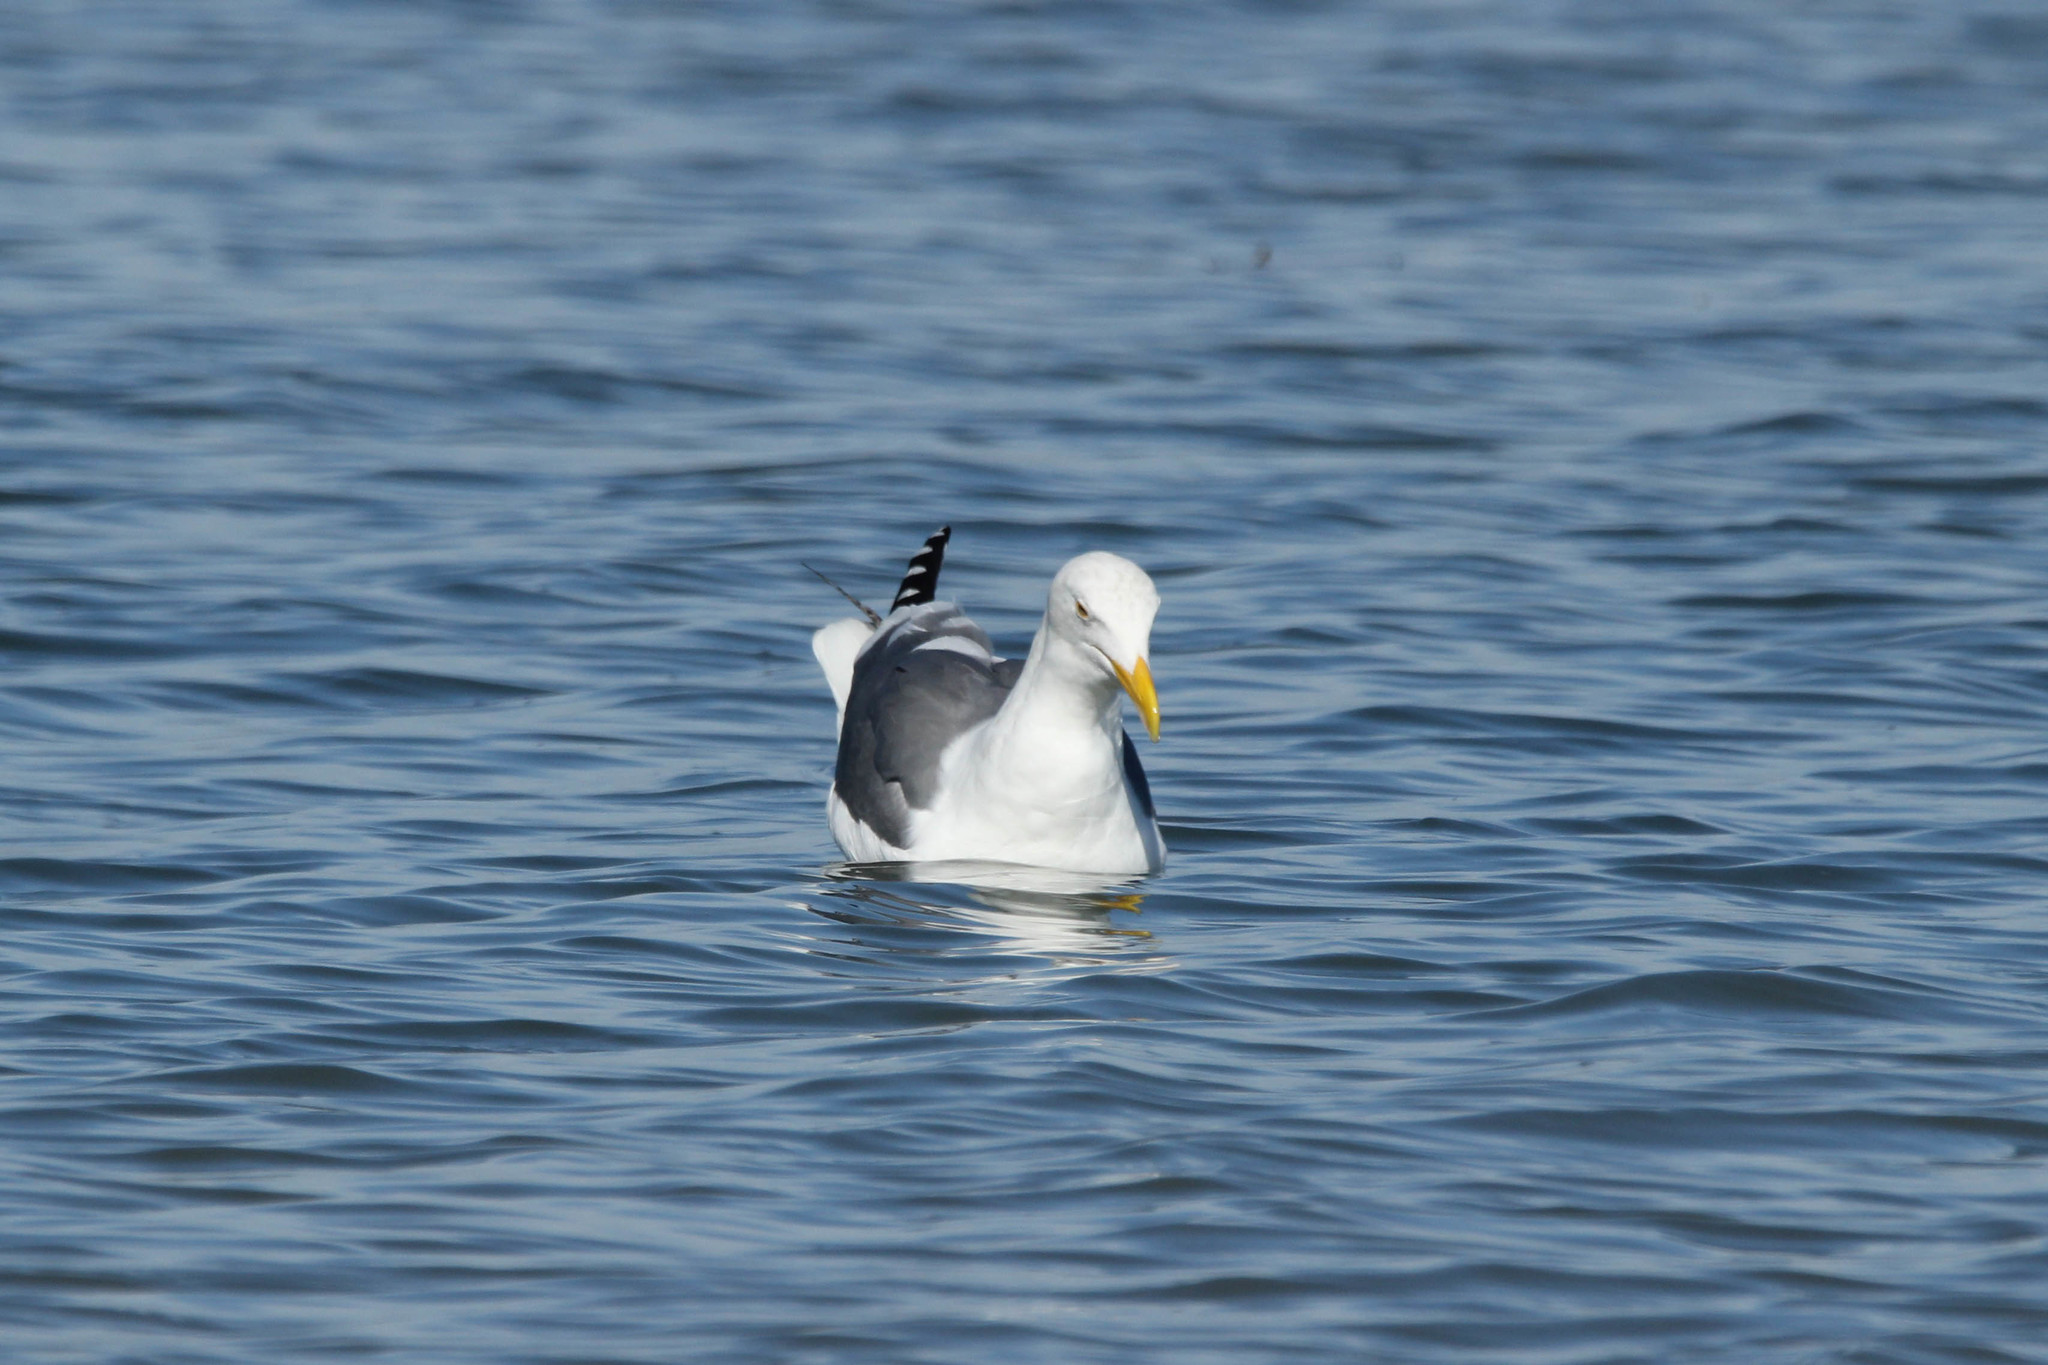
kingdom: Animalia
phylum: Chordata
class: Aves
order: Charadriiformes
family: Laridae
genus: Larus
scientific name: Larus occidentalis
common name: Western gull
